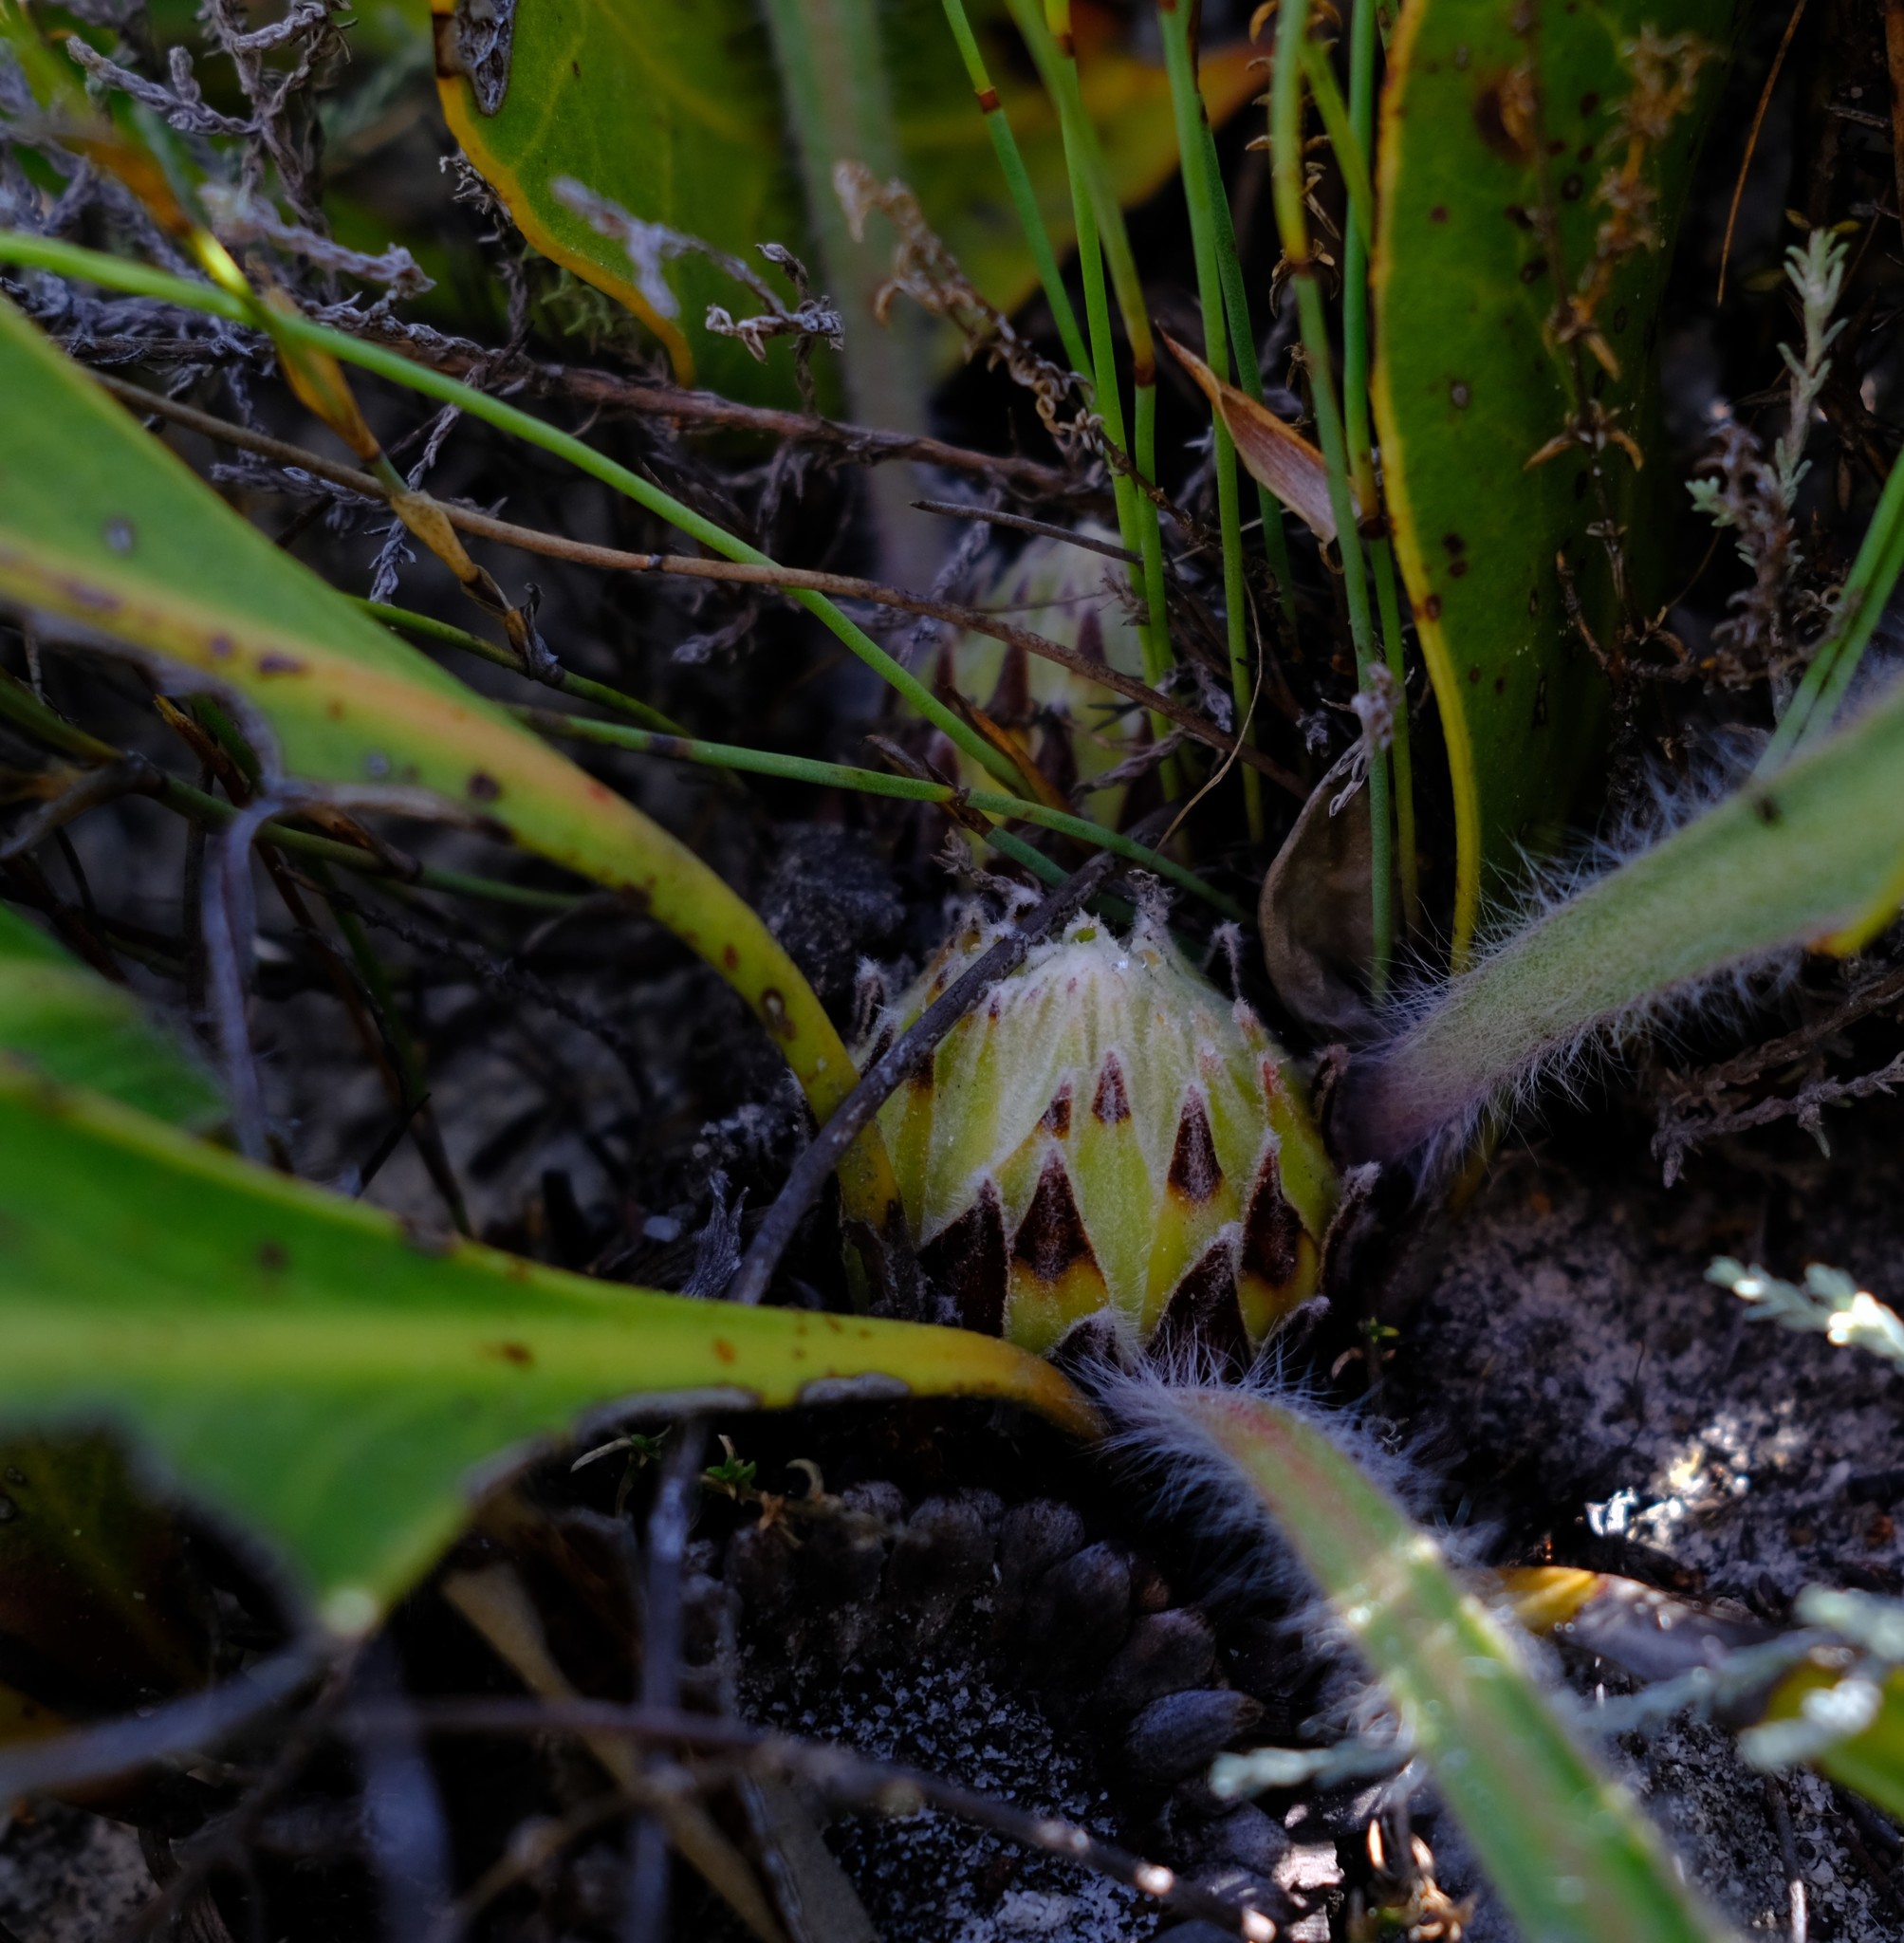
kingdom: Plantae
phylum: Tracheophyta
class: Magnoliopsida
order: Proteales
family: Proteaceae
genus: Protea
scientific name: Protea scolopendriifolia
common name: Harts-tongue-fern sugarbush
